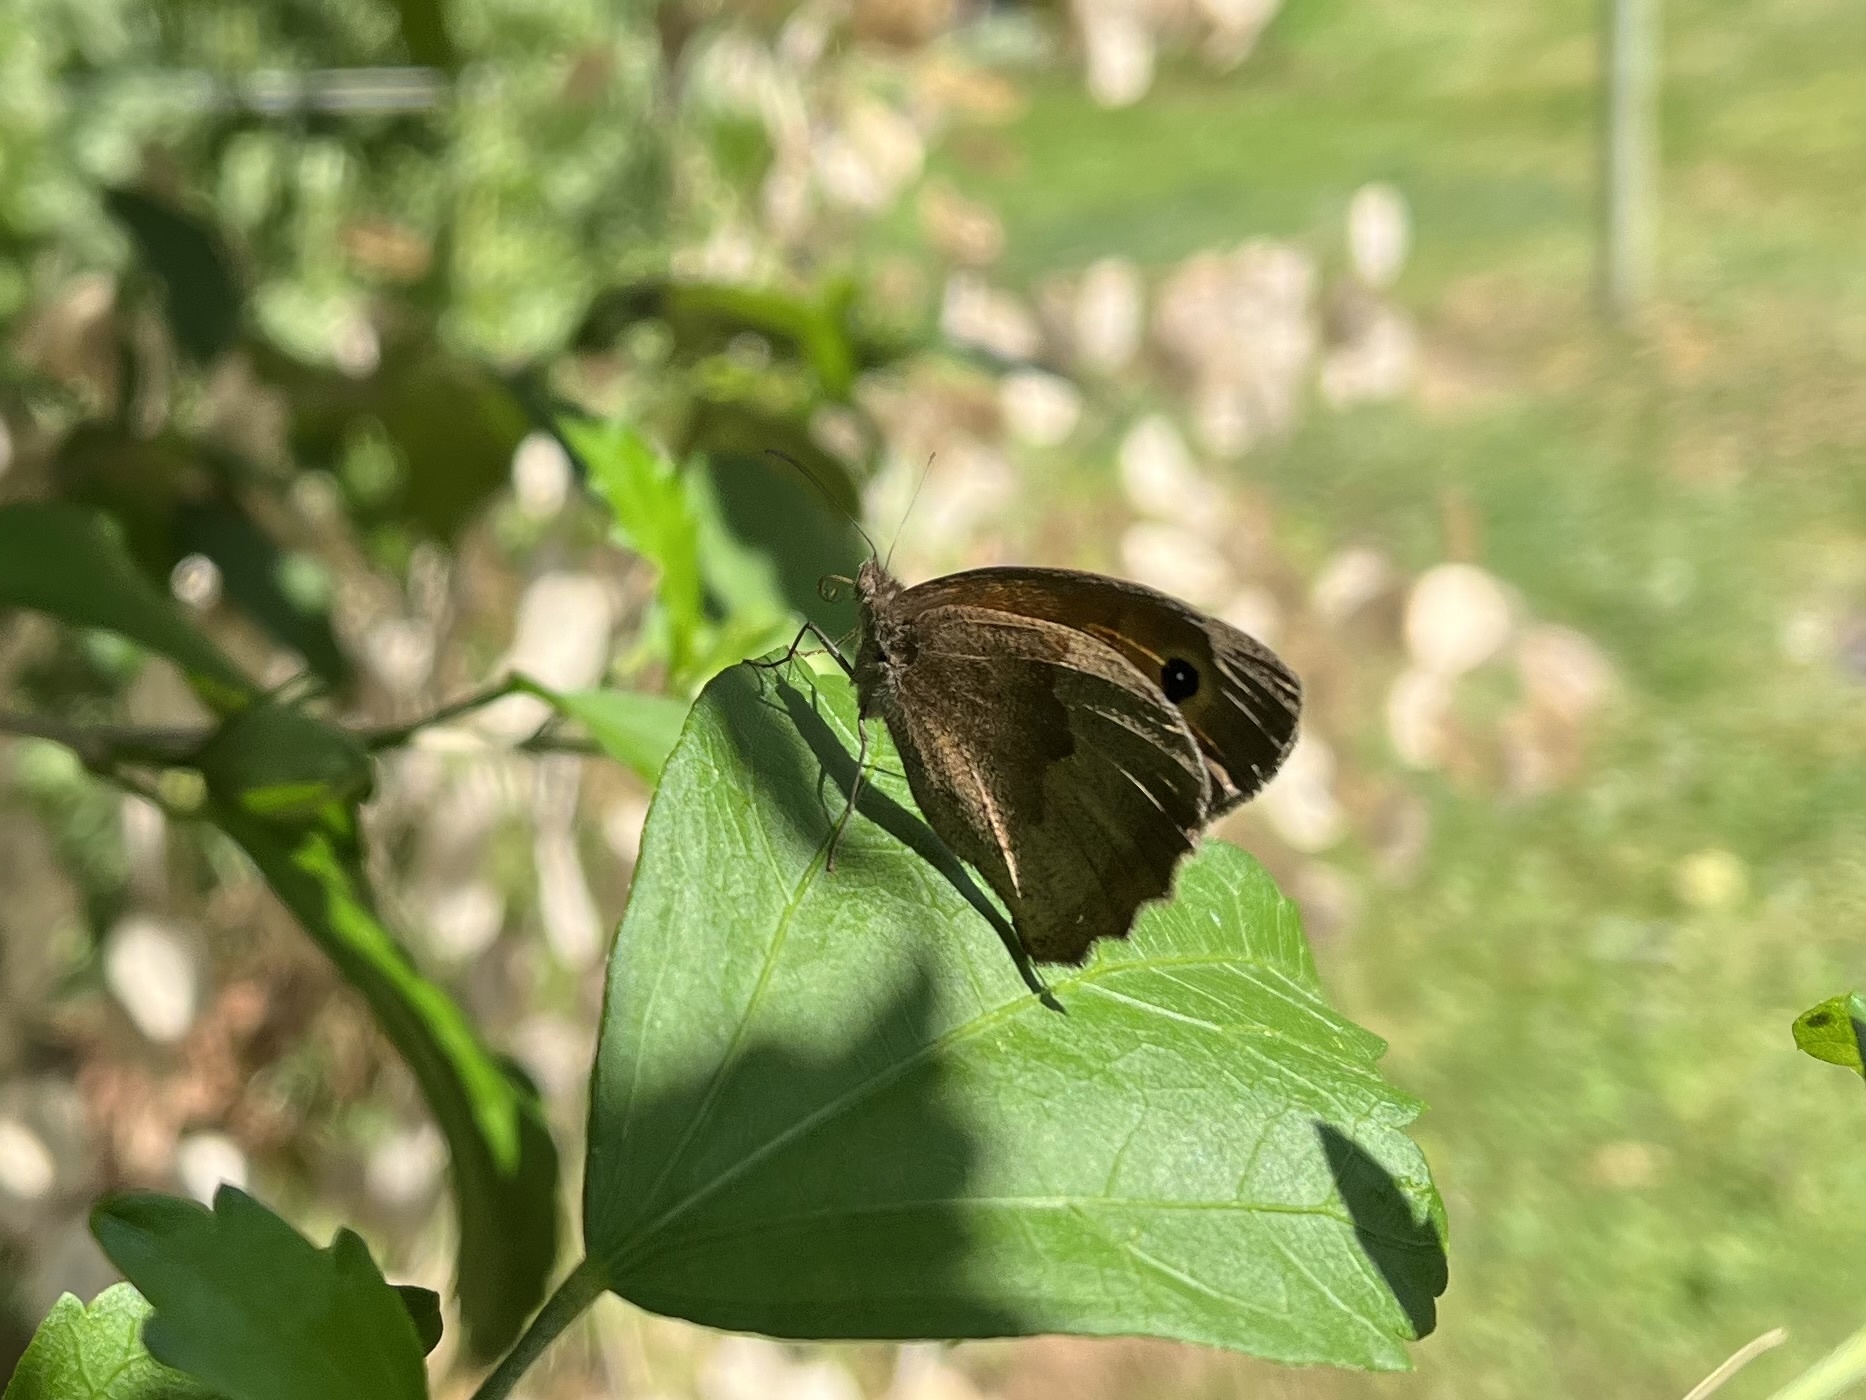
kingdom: Animalia
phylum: Arthropoda
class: Insecta
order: Lepidoptera
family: Nymphalidae
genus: Maniola
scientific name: Maniola jurtina
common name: Meadow brown
